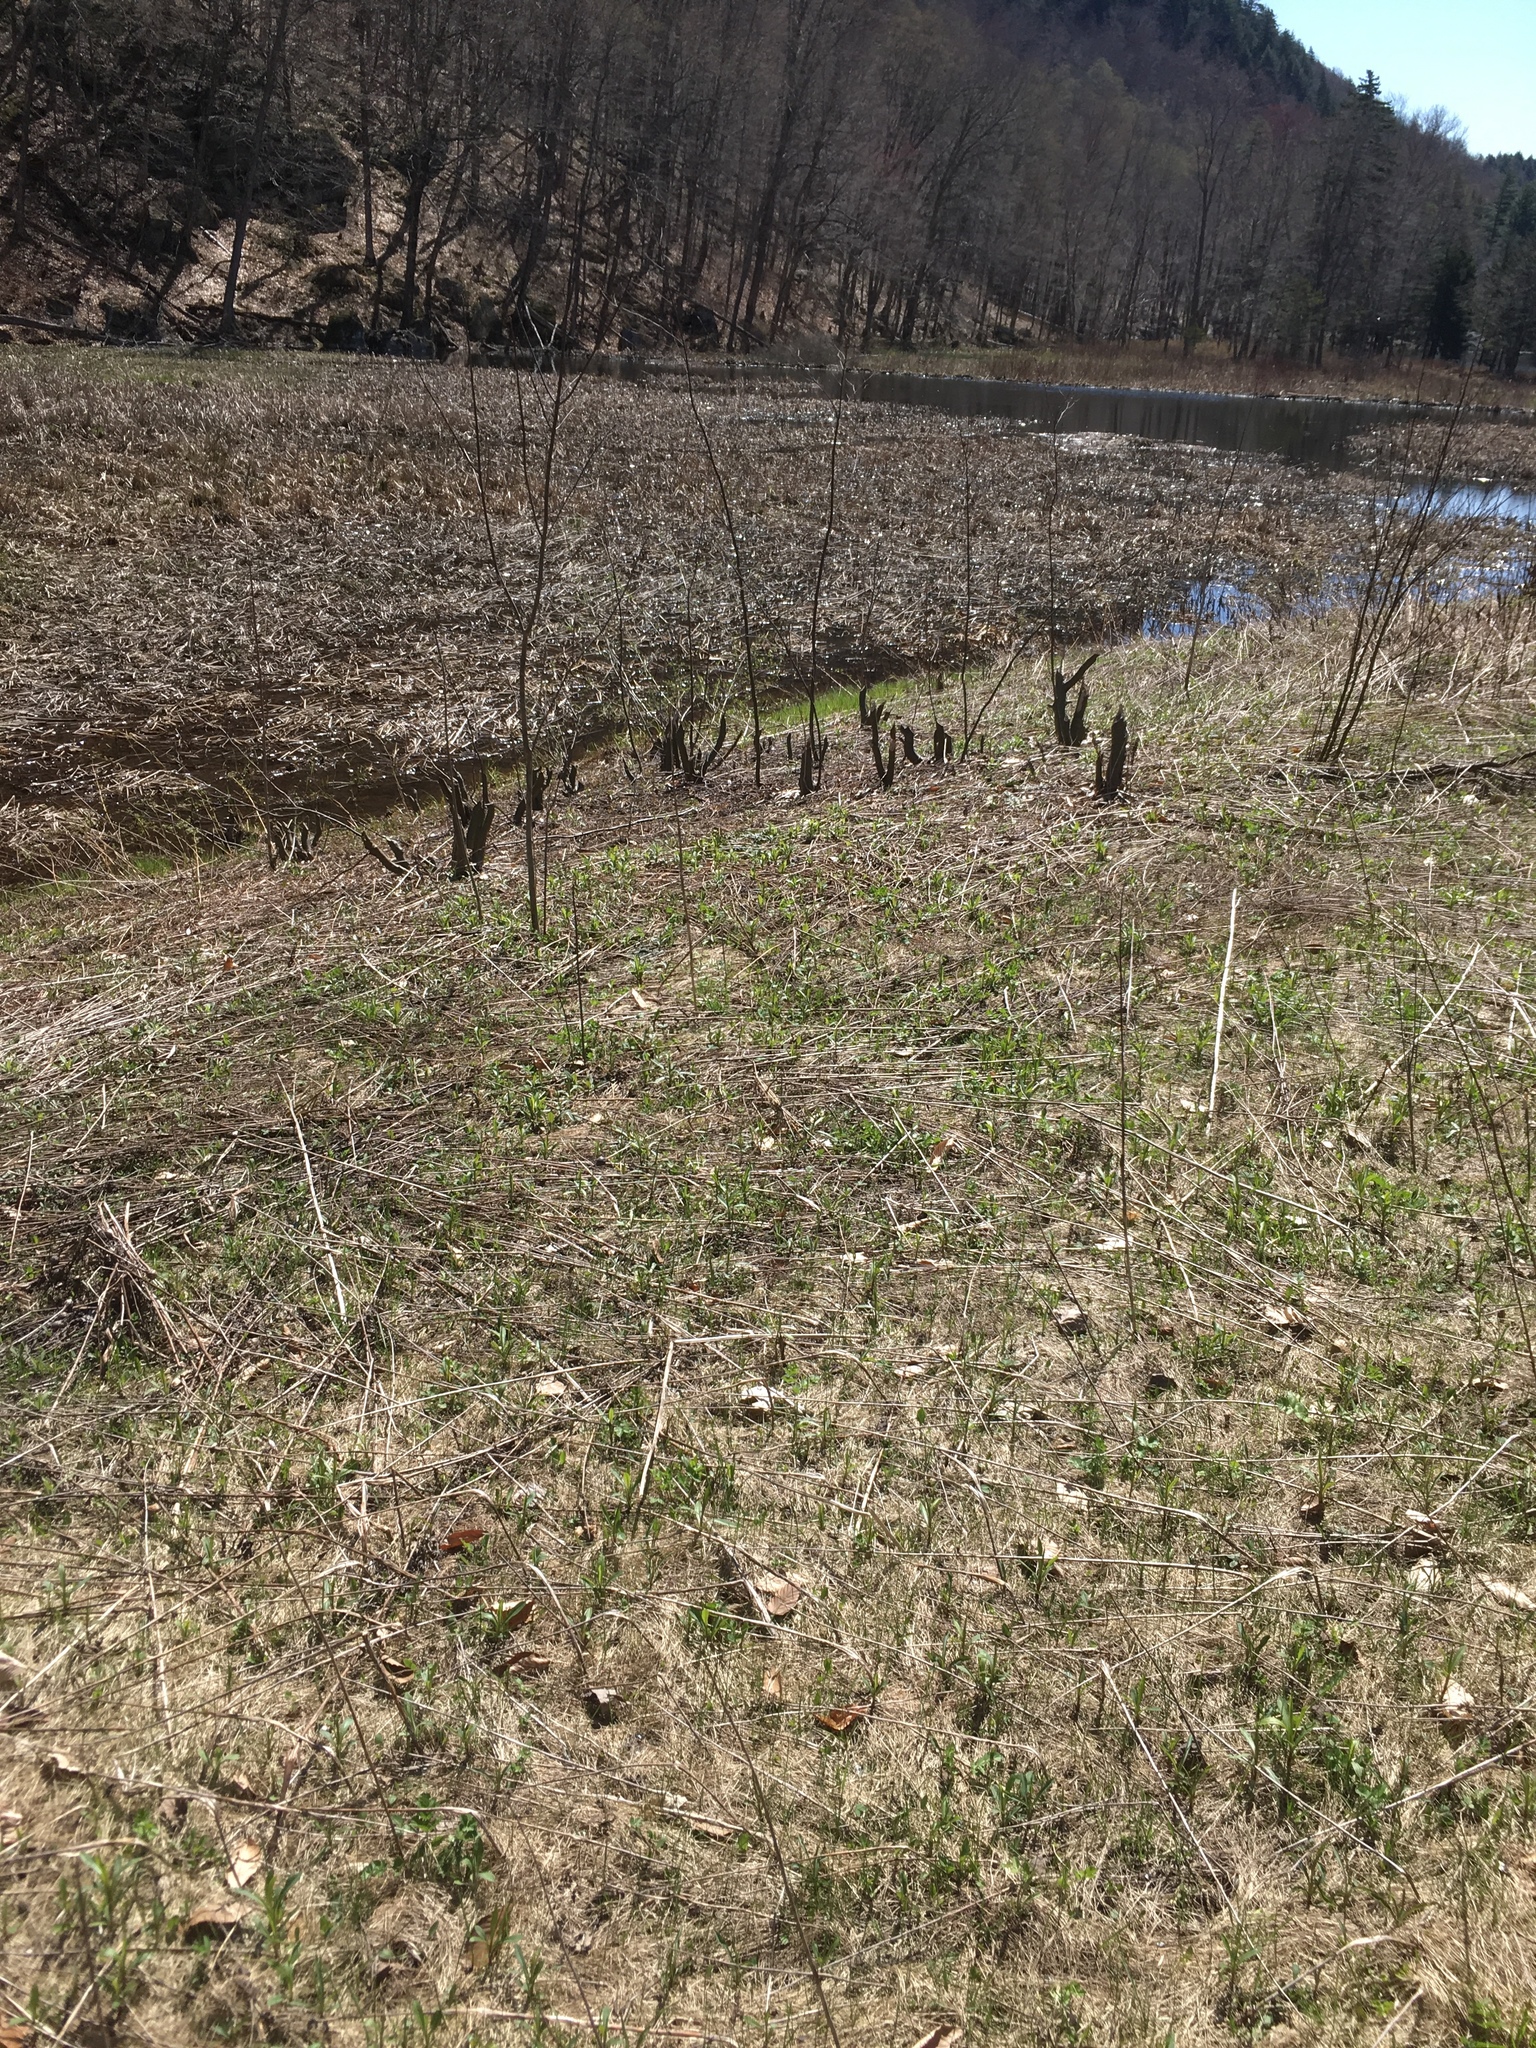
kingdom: Animalia
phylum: Chordata
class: Mammalia
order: Rodentia
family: Castoridae
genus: Castor
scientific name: Castor canadensis
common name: American beaver
